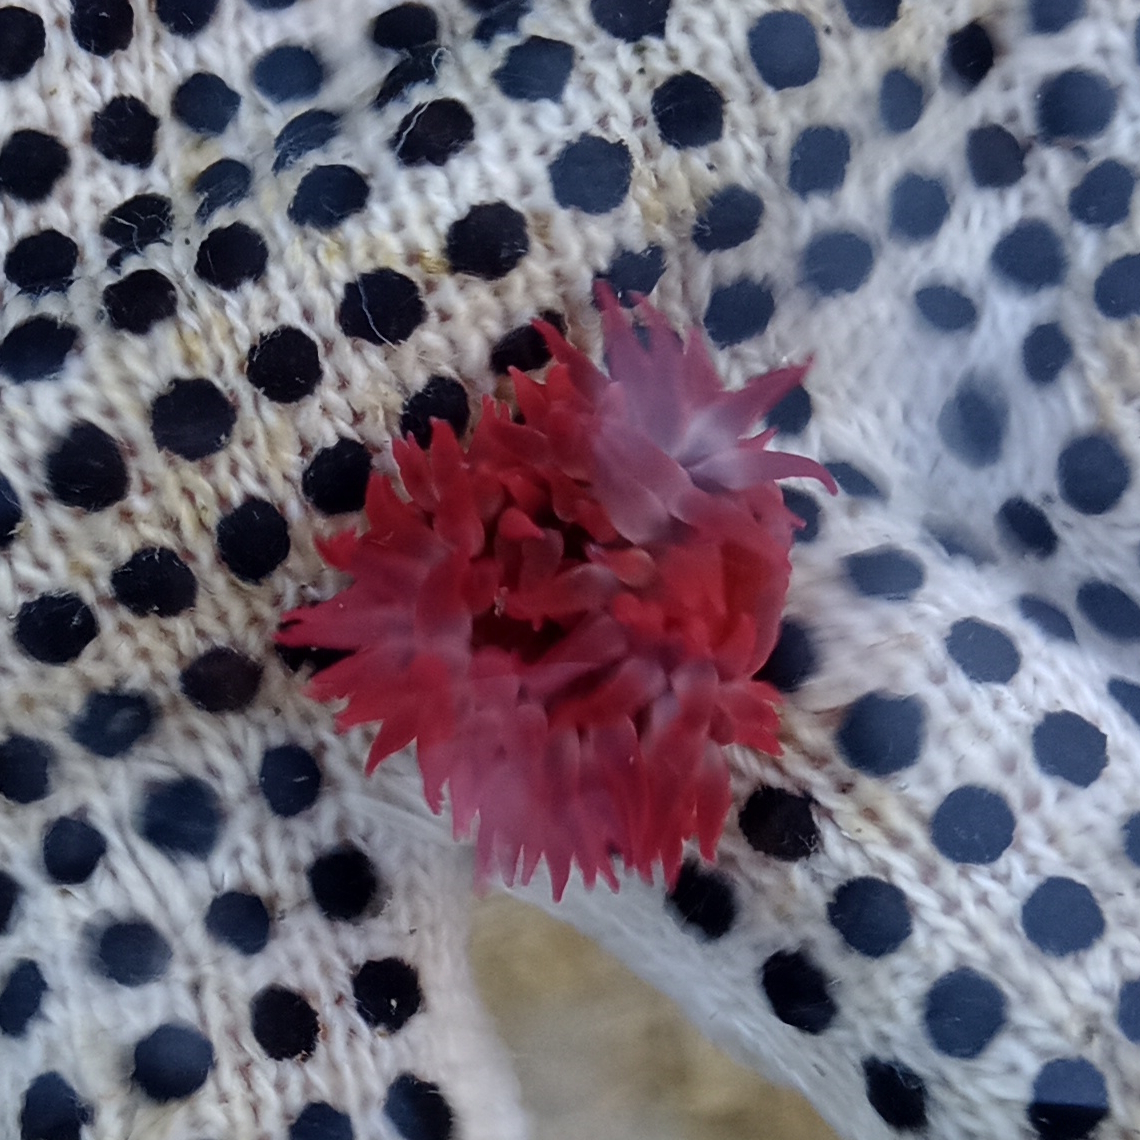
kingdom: Animalia
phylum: Cnidaria
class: Anthozoa
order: Actiniaria
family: Actiniidae
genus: Anemonia
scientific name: Anemonia sargassensis
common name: Sargassum anemone
